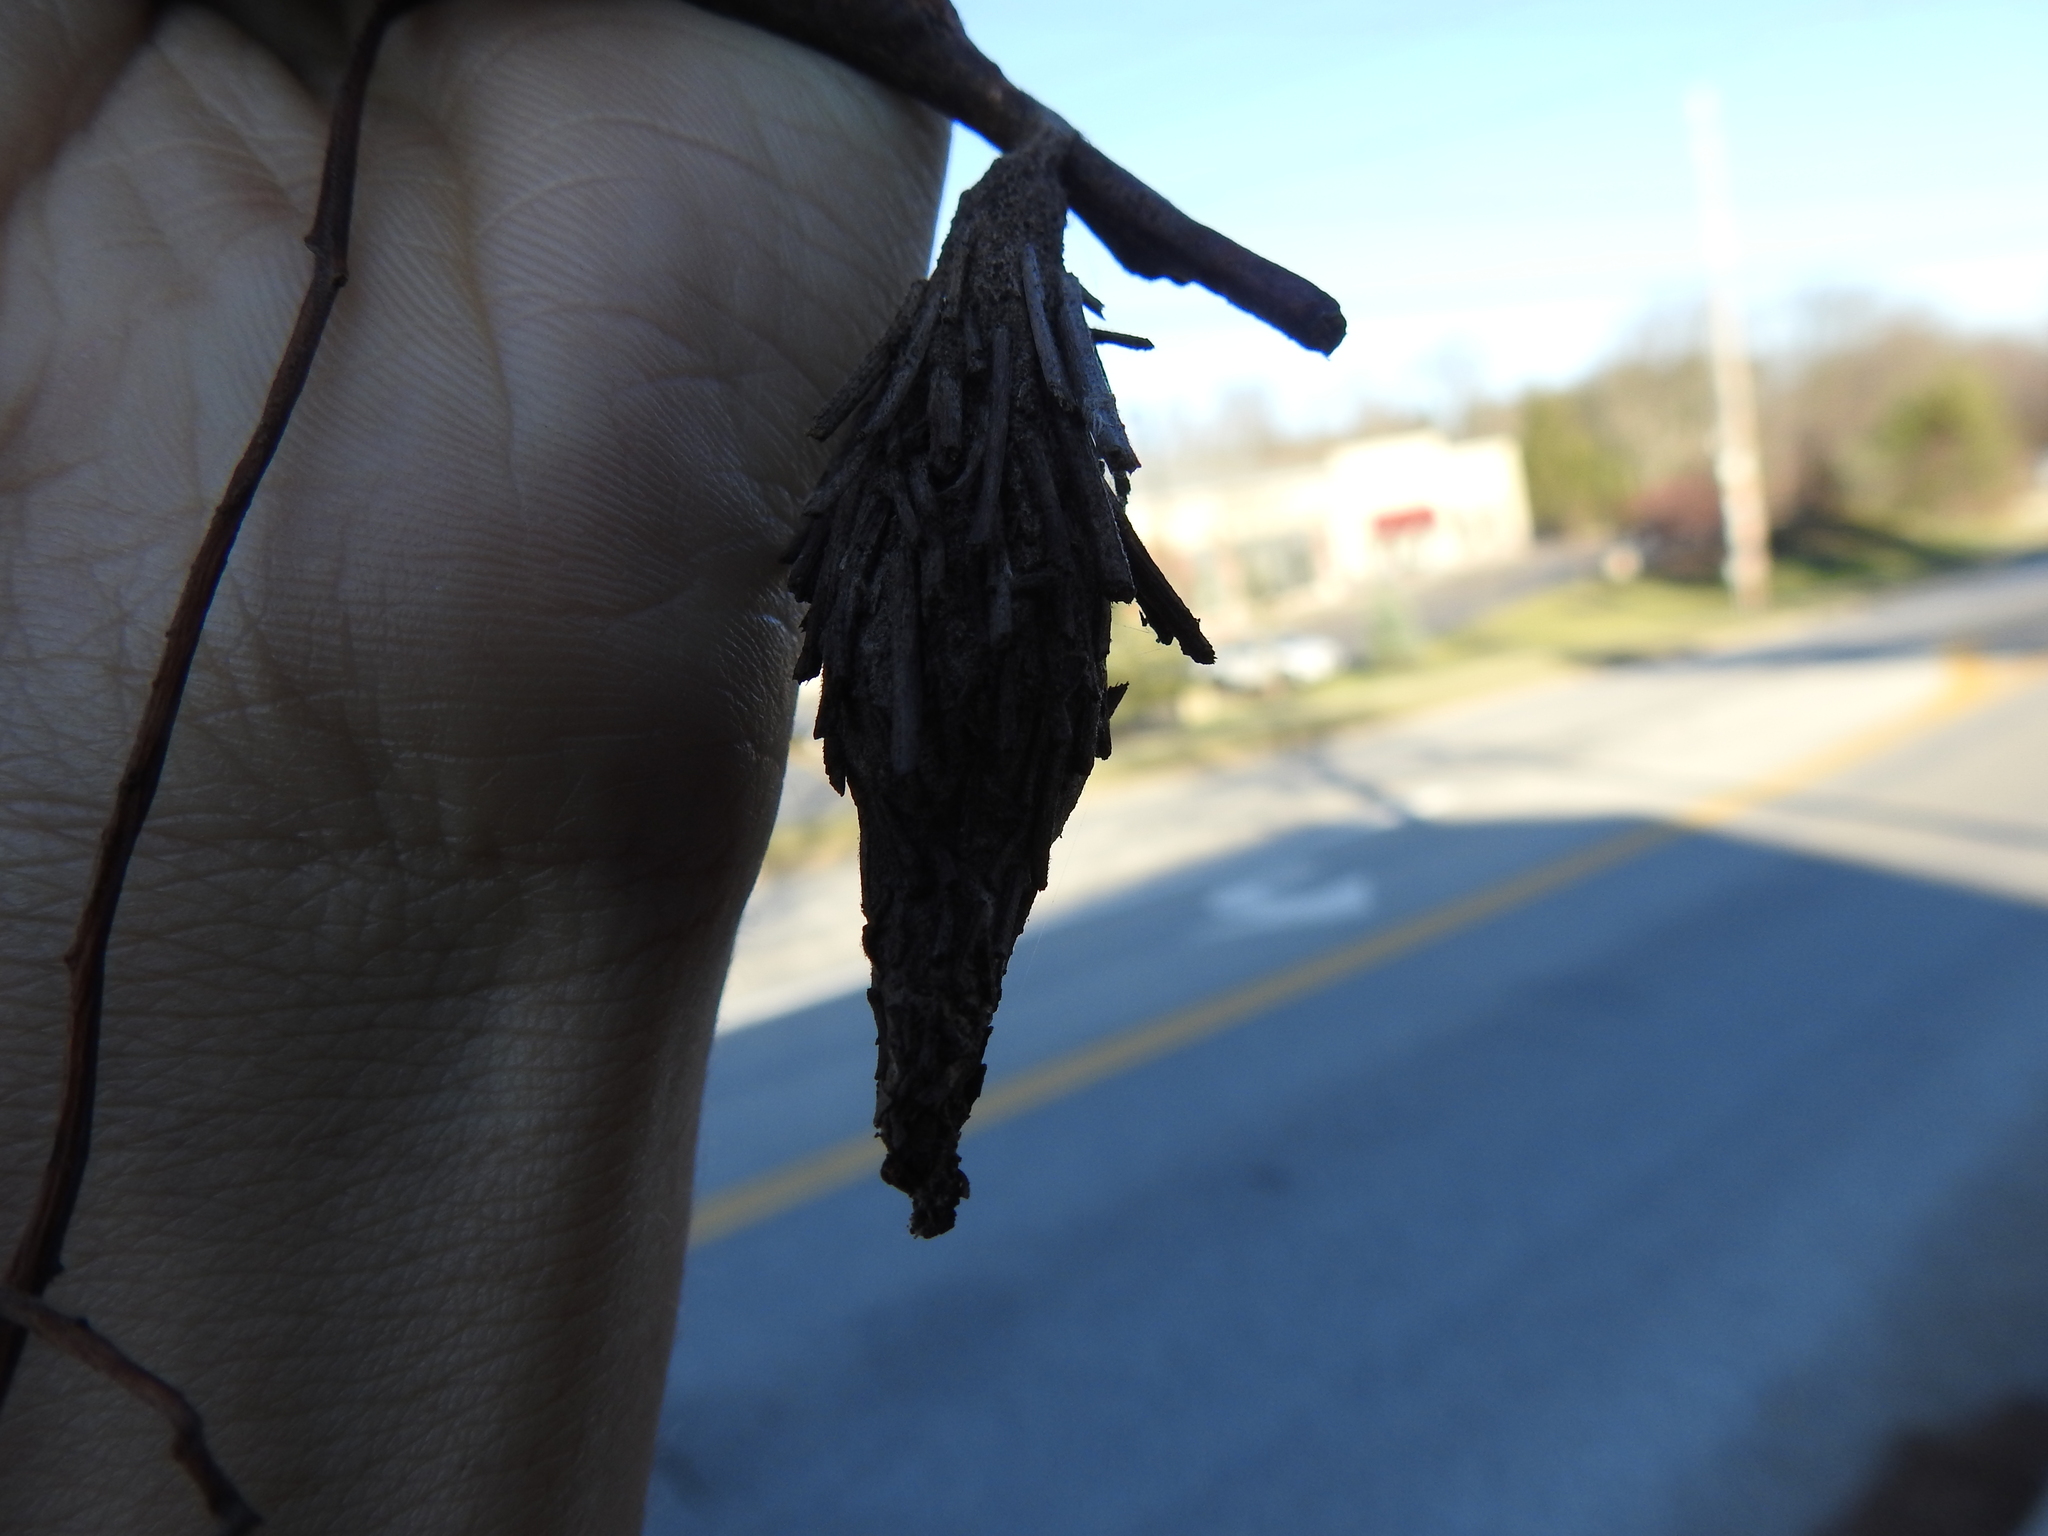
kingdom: Animalia
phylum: Arthropoda
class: Insecta
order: Lepidoptera
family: Psychidae
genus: Thyridopteryx
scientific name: Thyridopteryx ephemeraeformis
